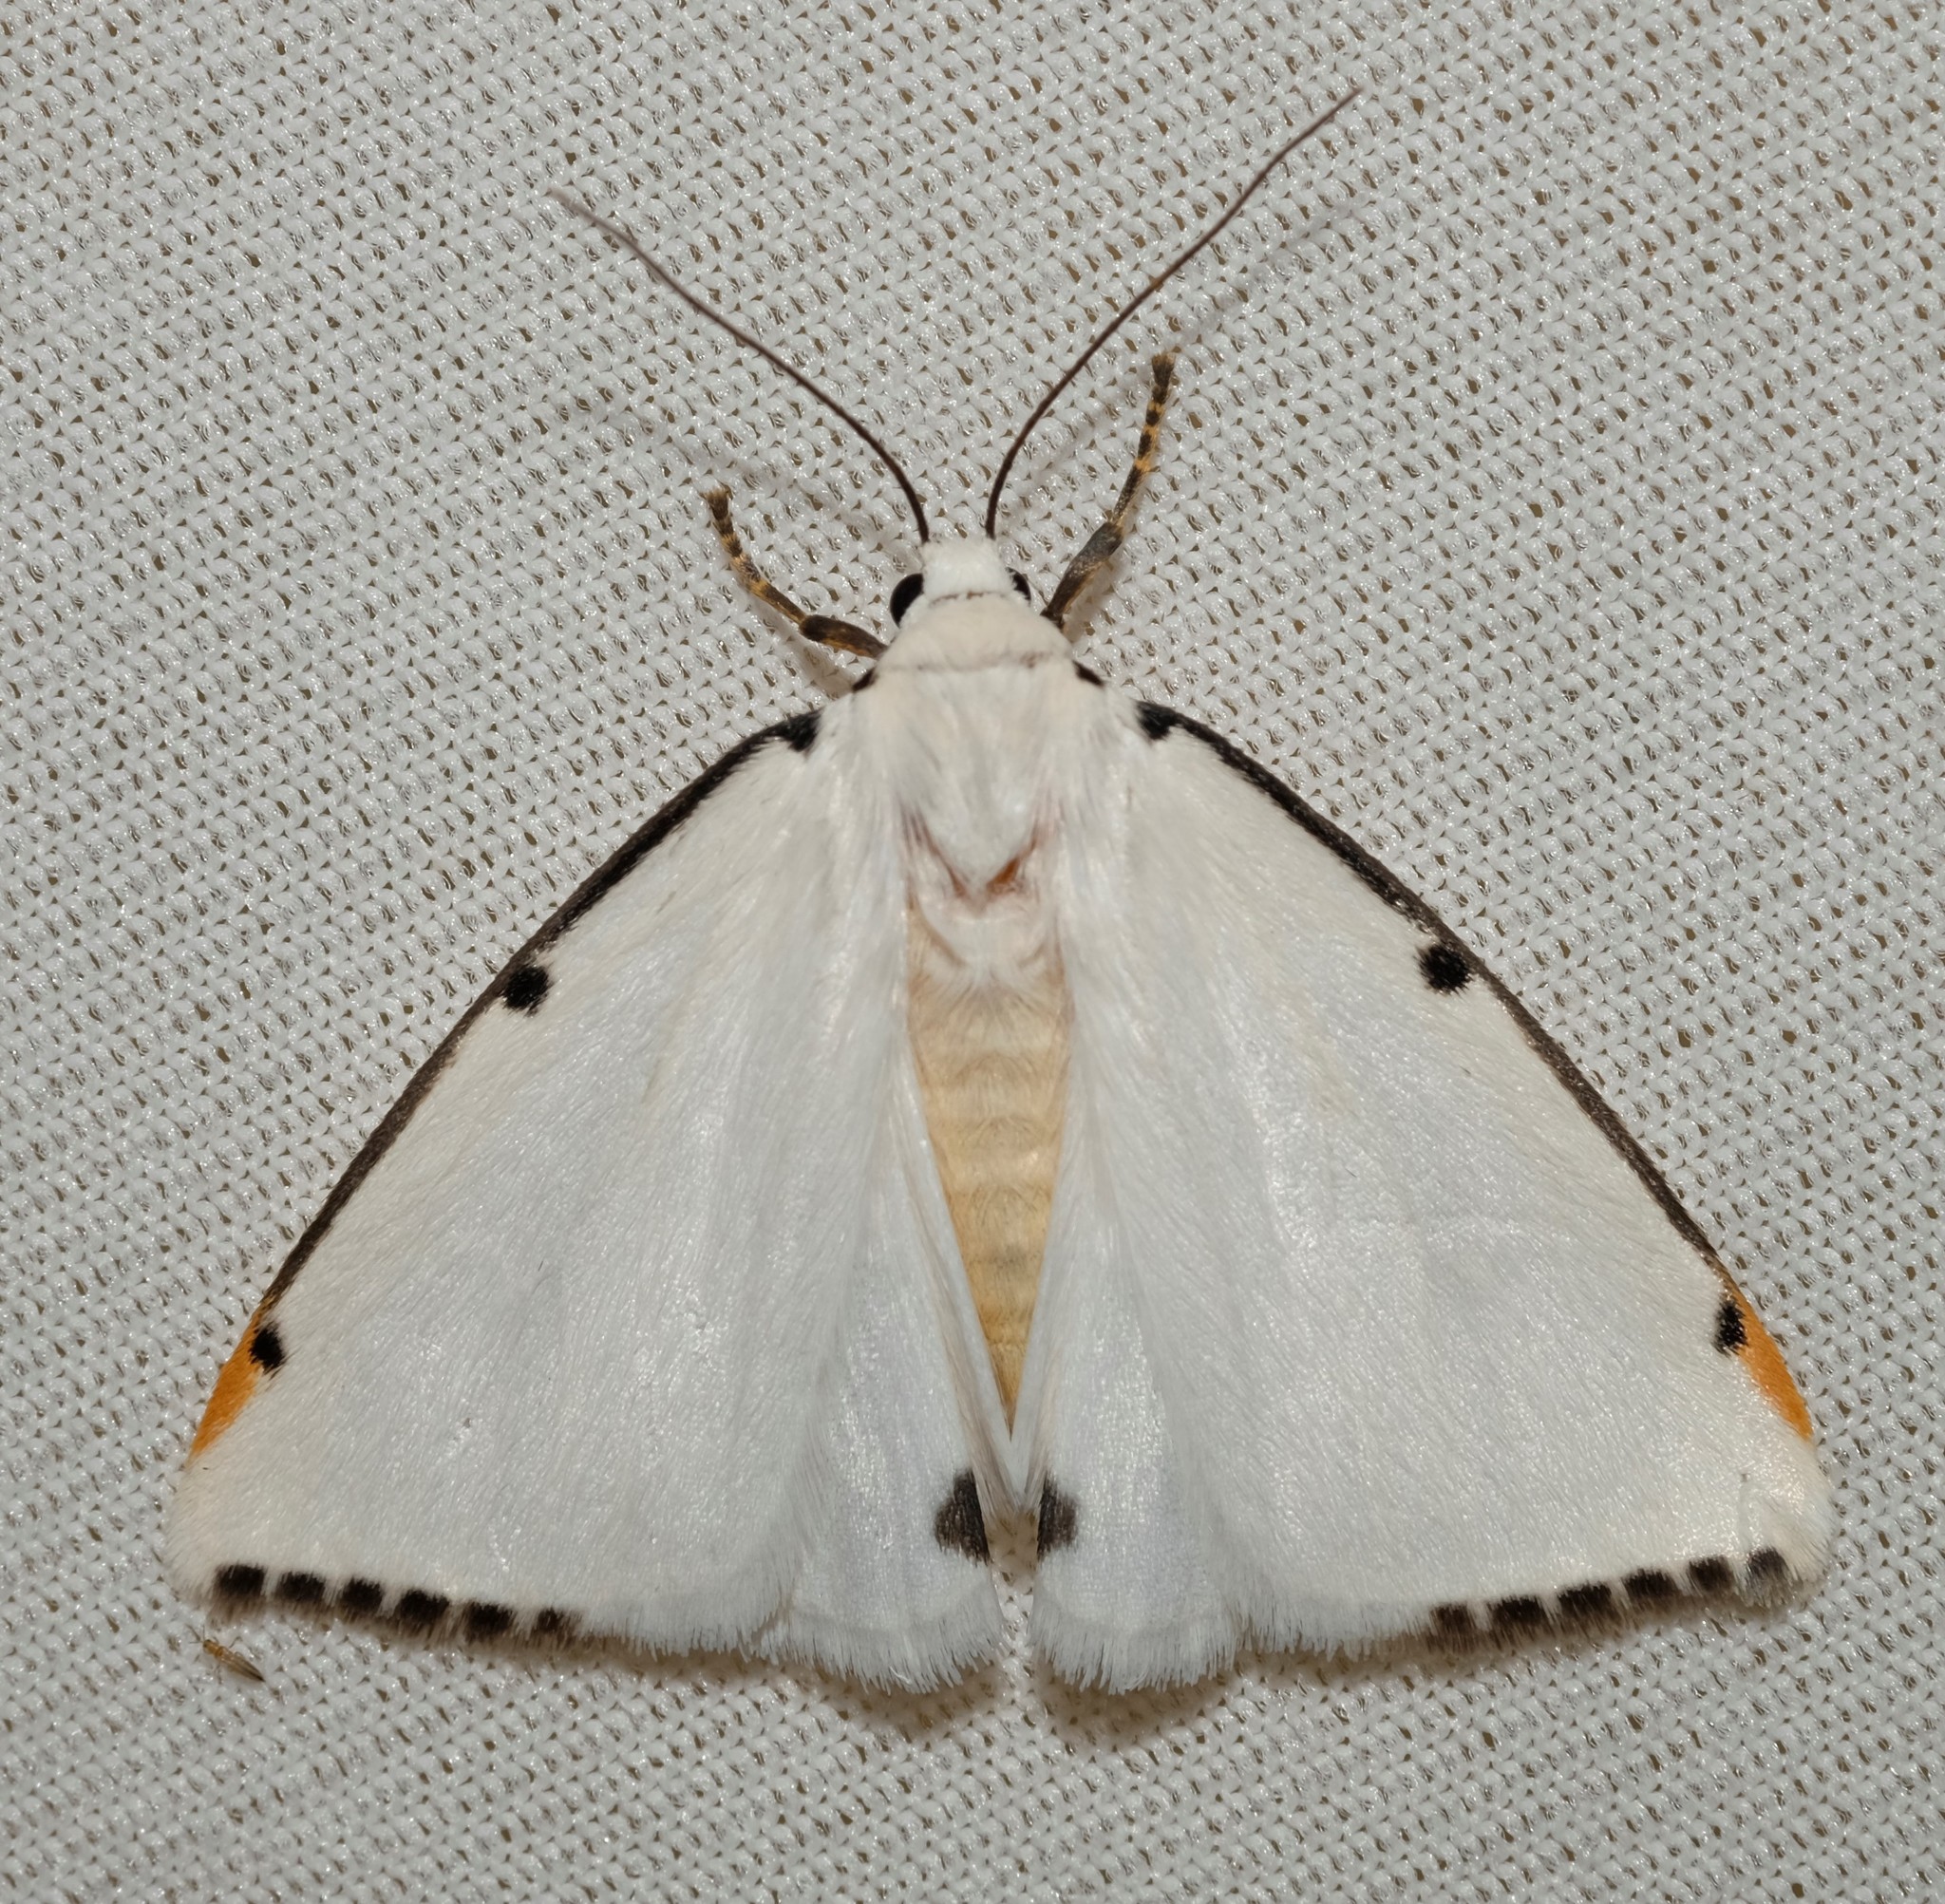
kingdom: Animalia
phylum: Arthropoda
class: Insecta
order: Lepidoptera
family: Erebidae
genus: Termessa
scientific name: Termessa nivosa
